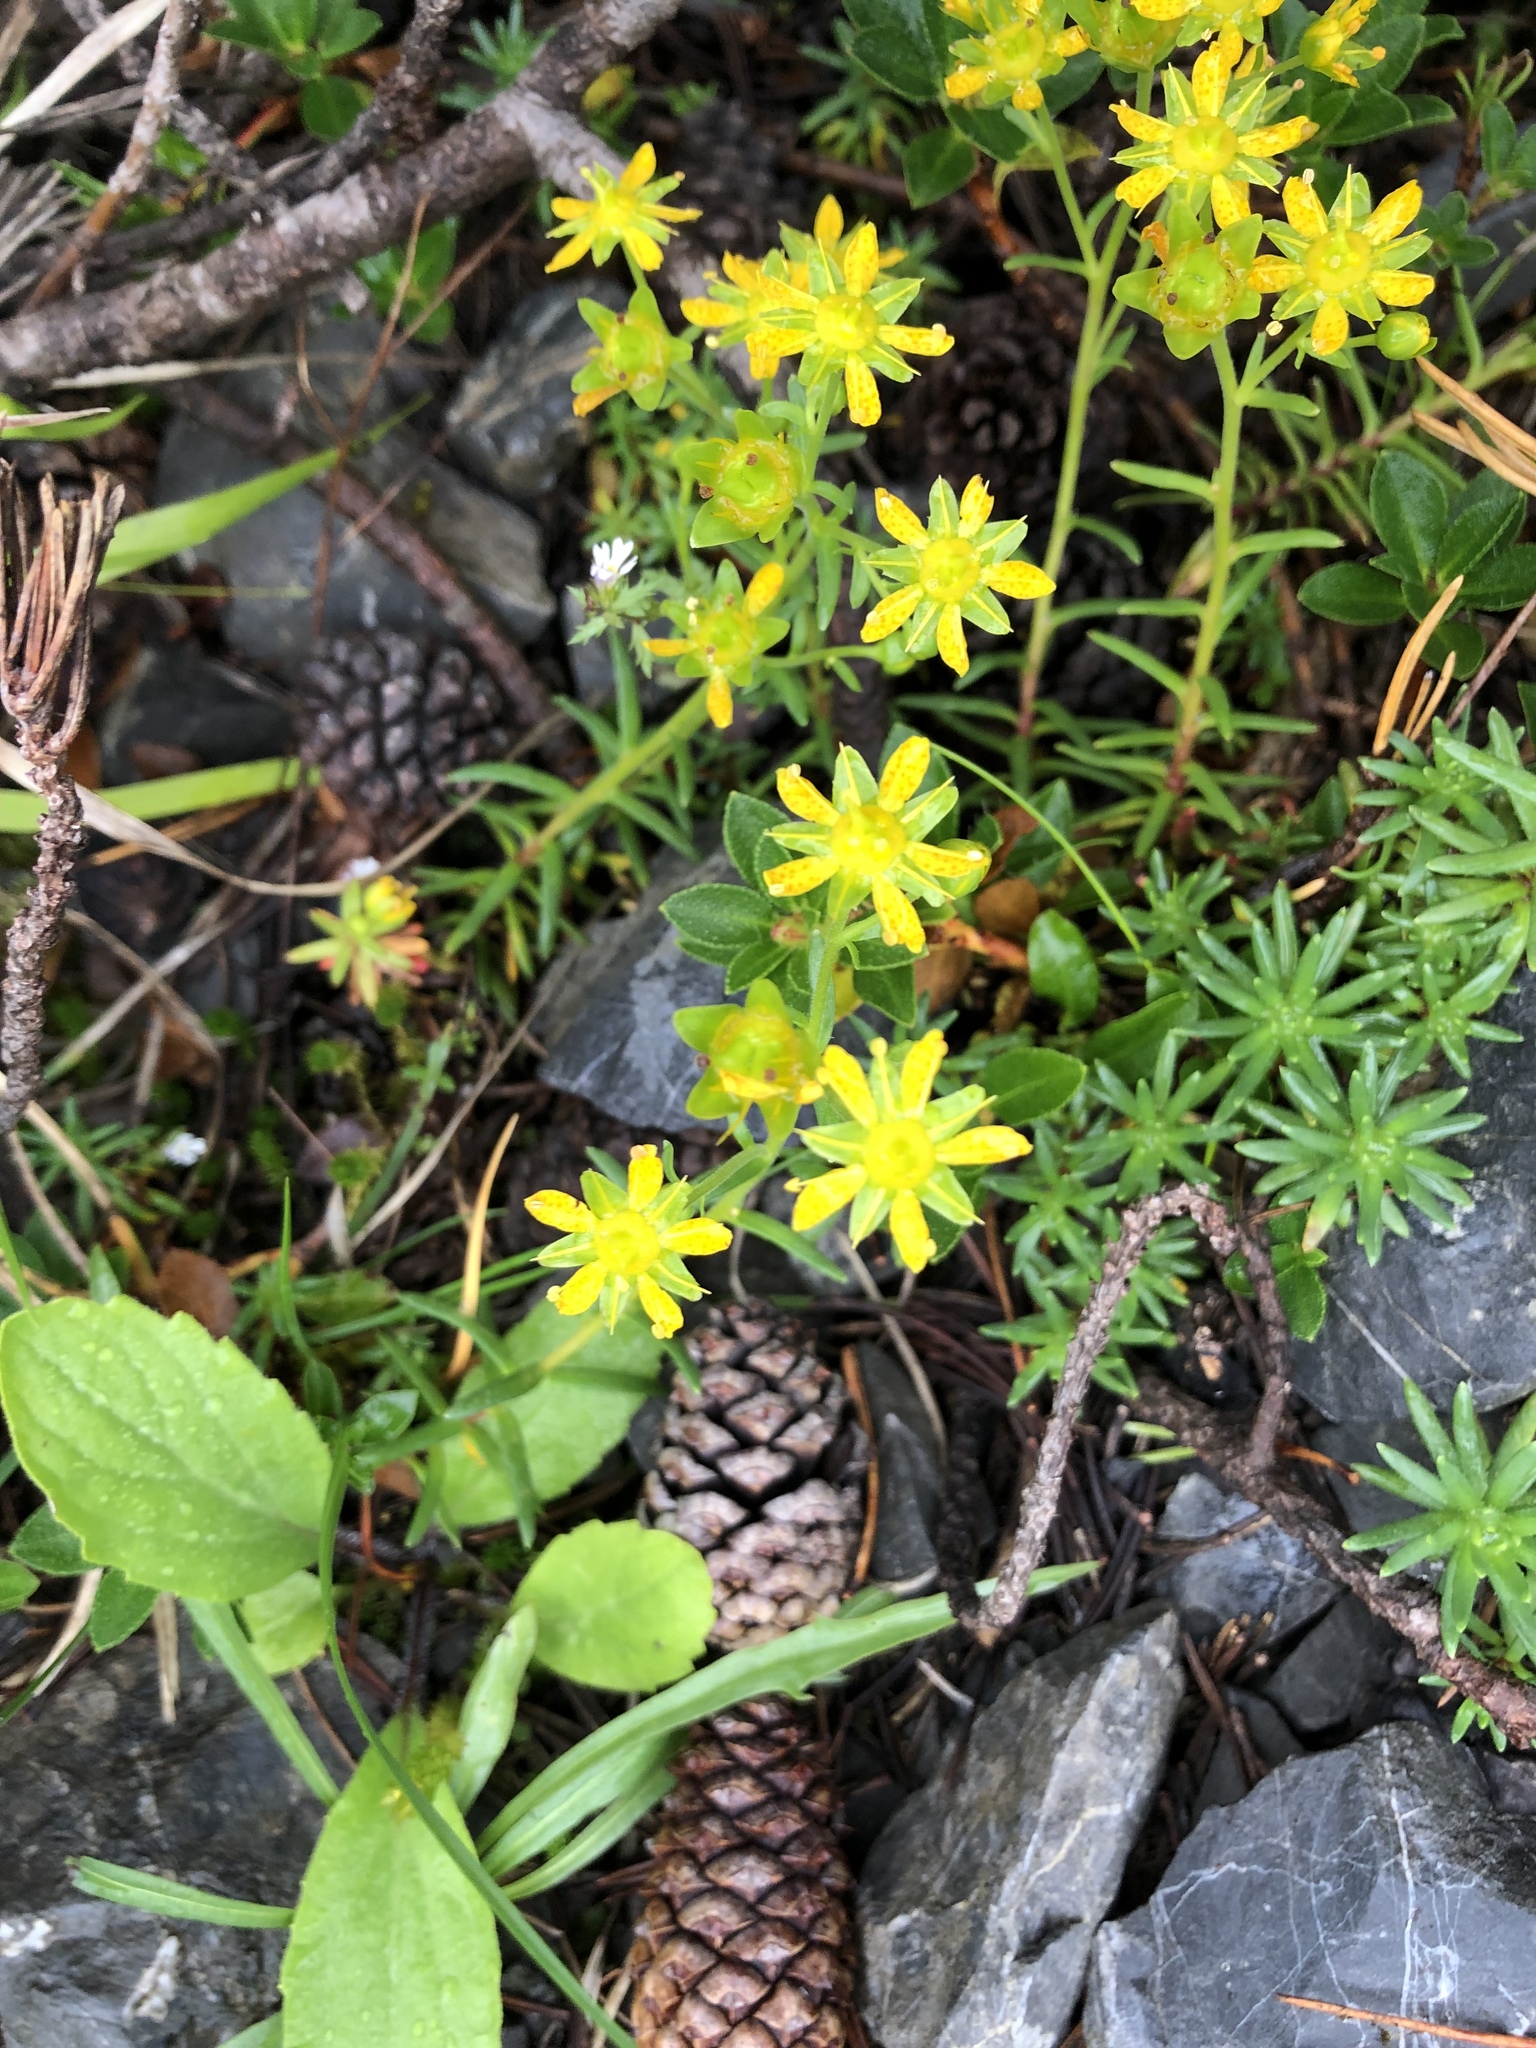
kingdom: Plantae
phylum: Tracheophyta
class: Magnoliopsida
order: Saxifragales
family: Saxifragaceae
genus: Saxifraga
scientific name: Saxifraga aizoides
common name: Yellow mountain saxifrage
